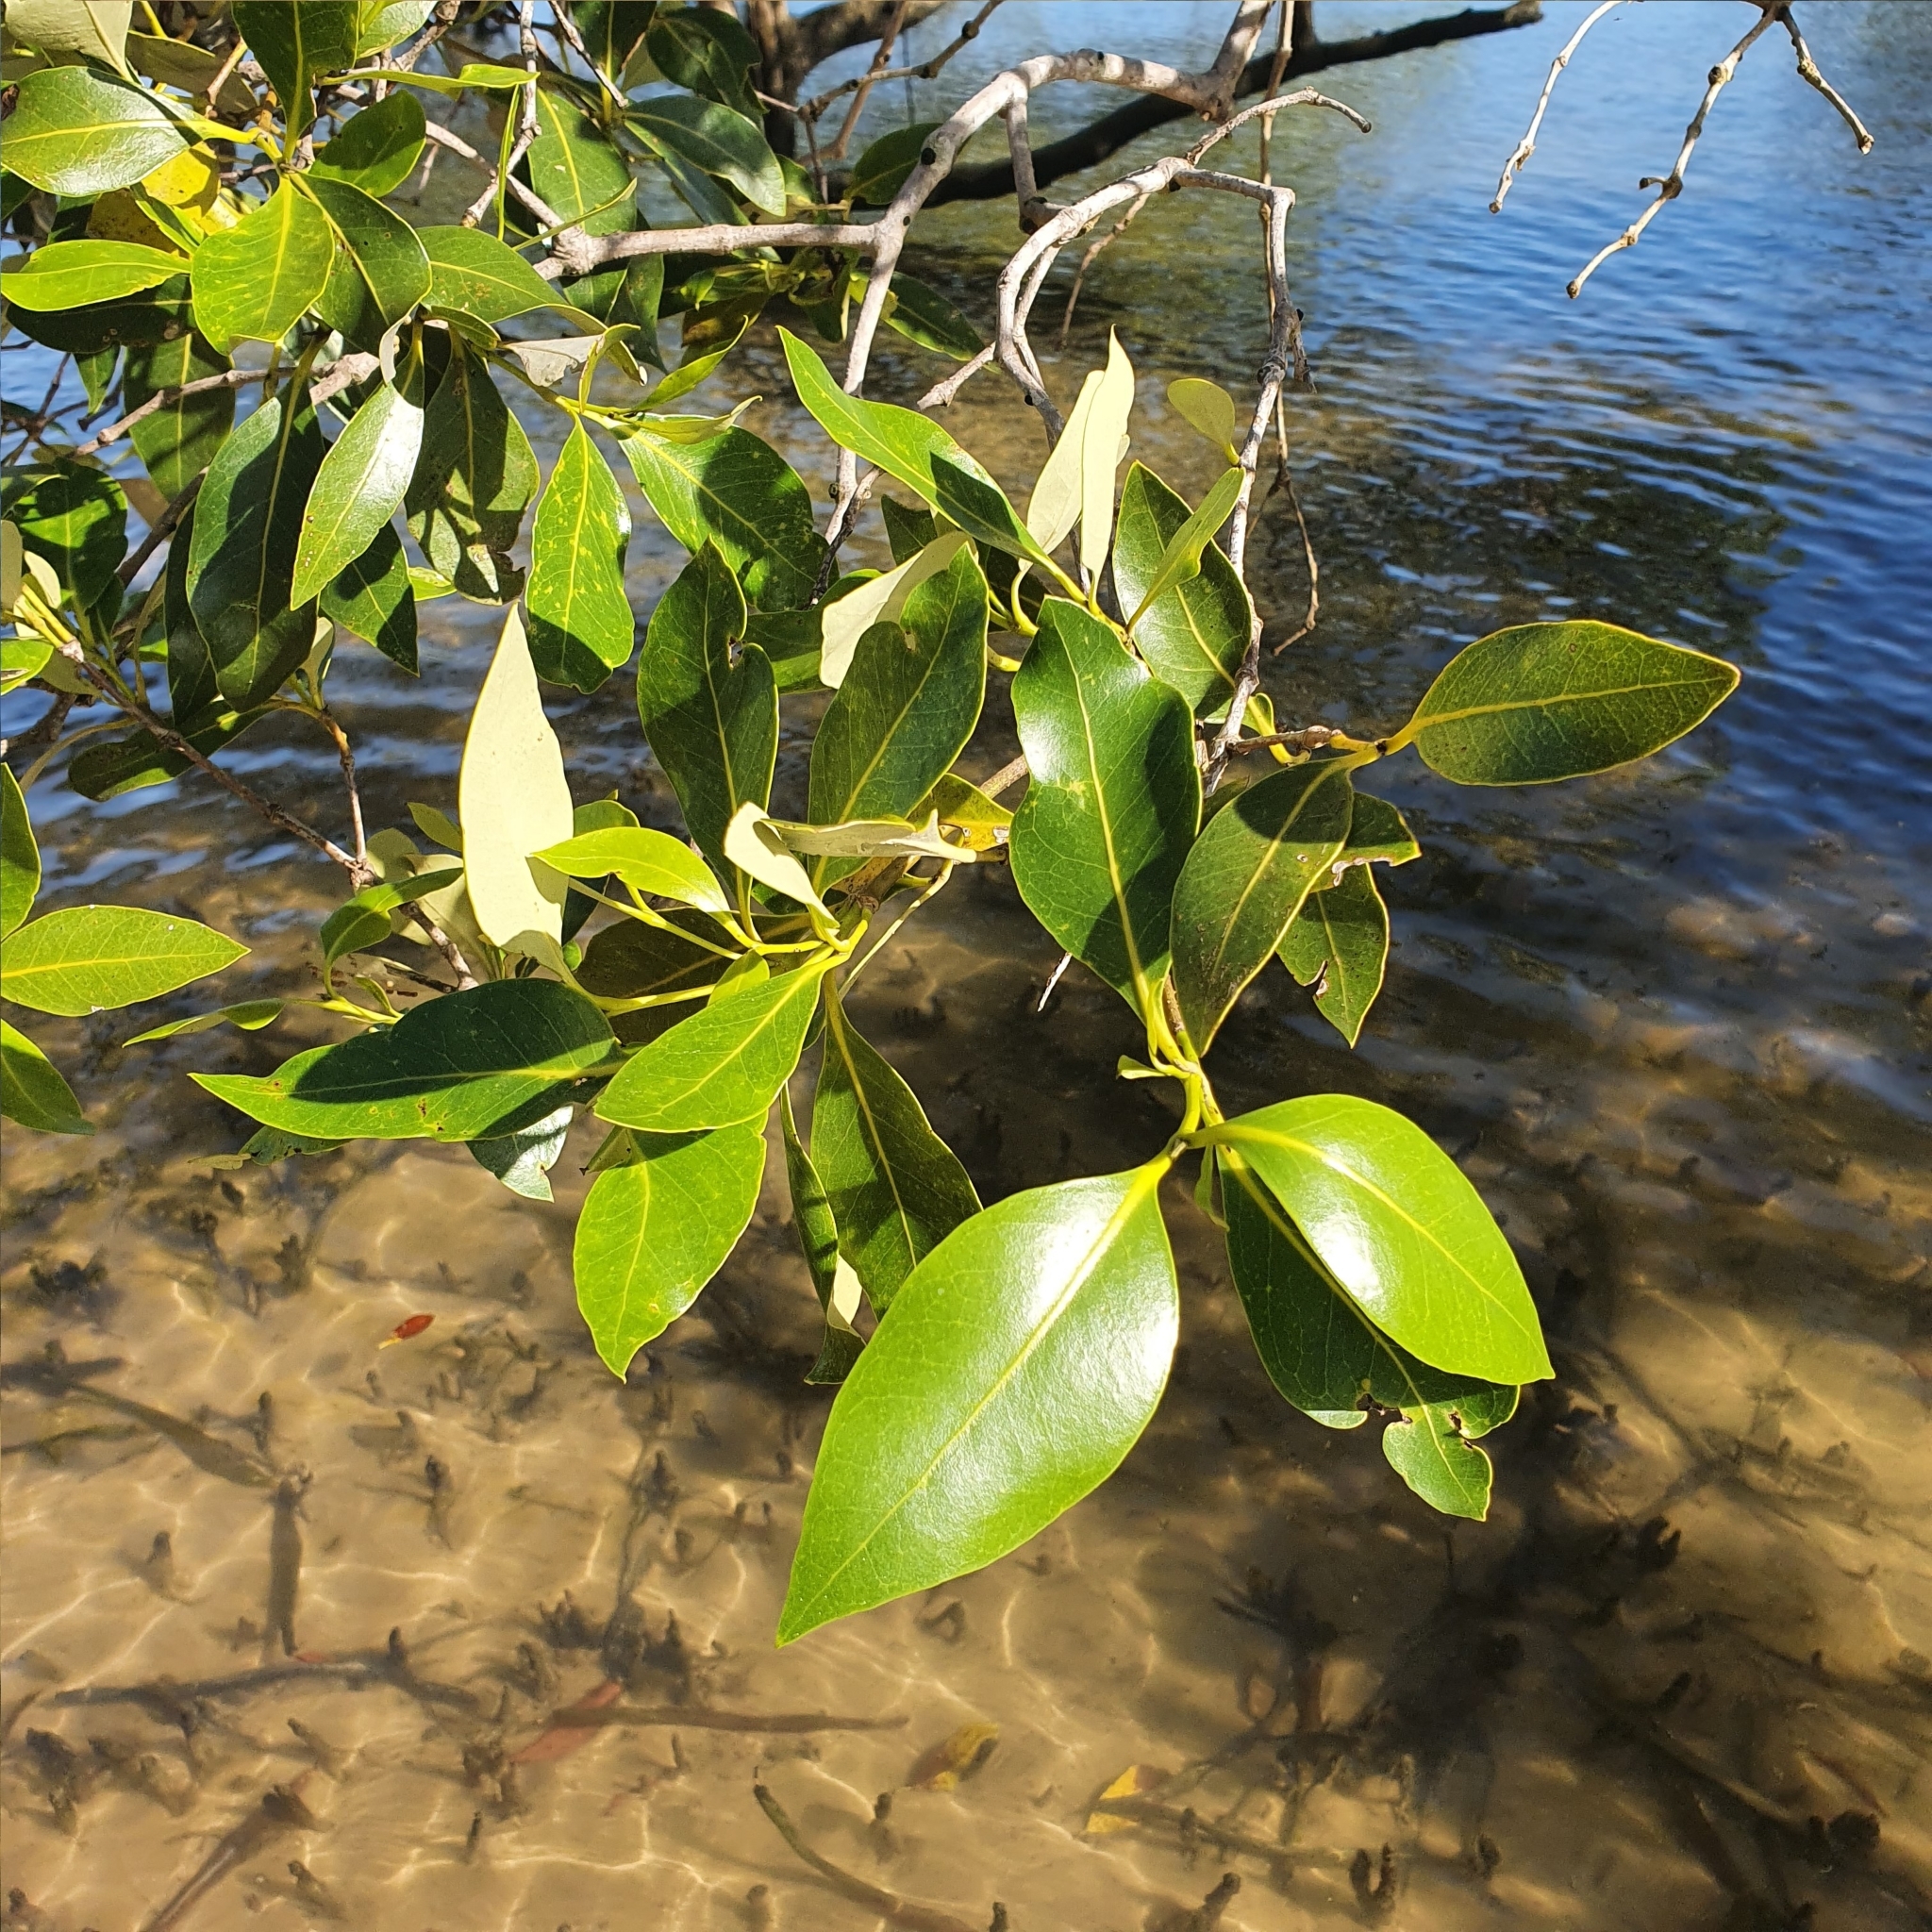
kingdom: Plantae
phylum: Tracheophyta
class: Magnoliopsida
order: Lamiales
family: Acanthaceae
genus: Avicennia
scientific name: Avicennia marina
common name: Gray mangrove
